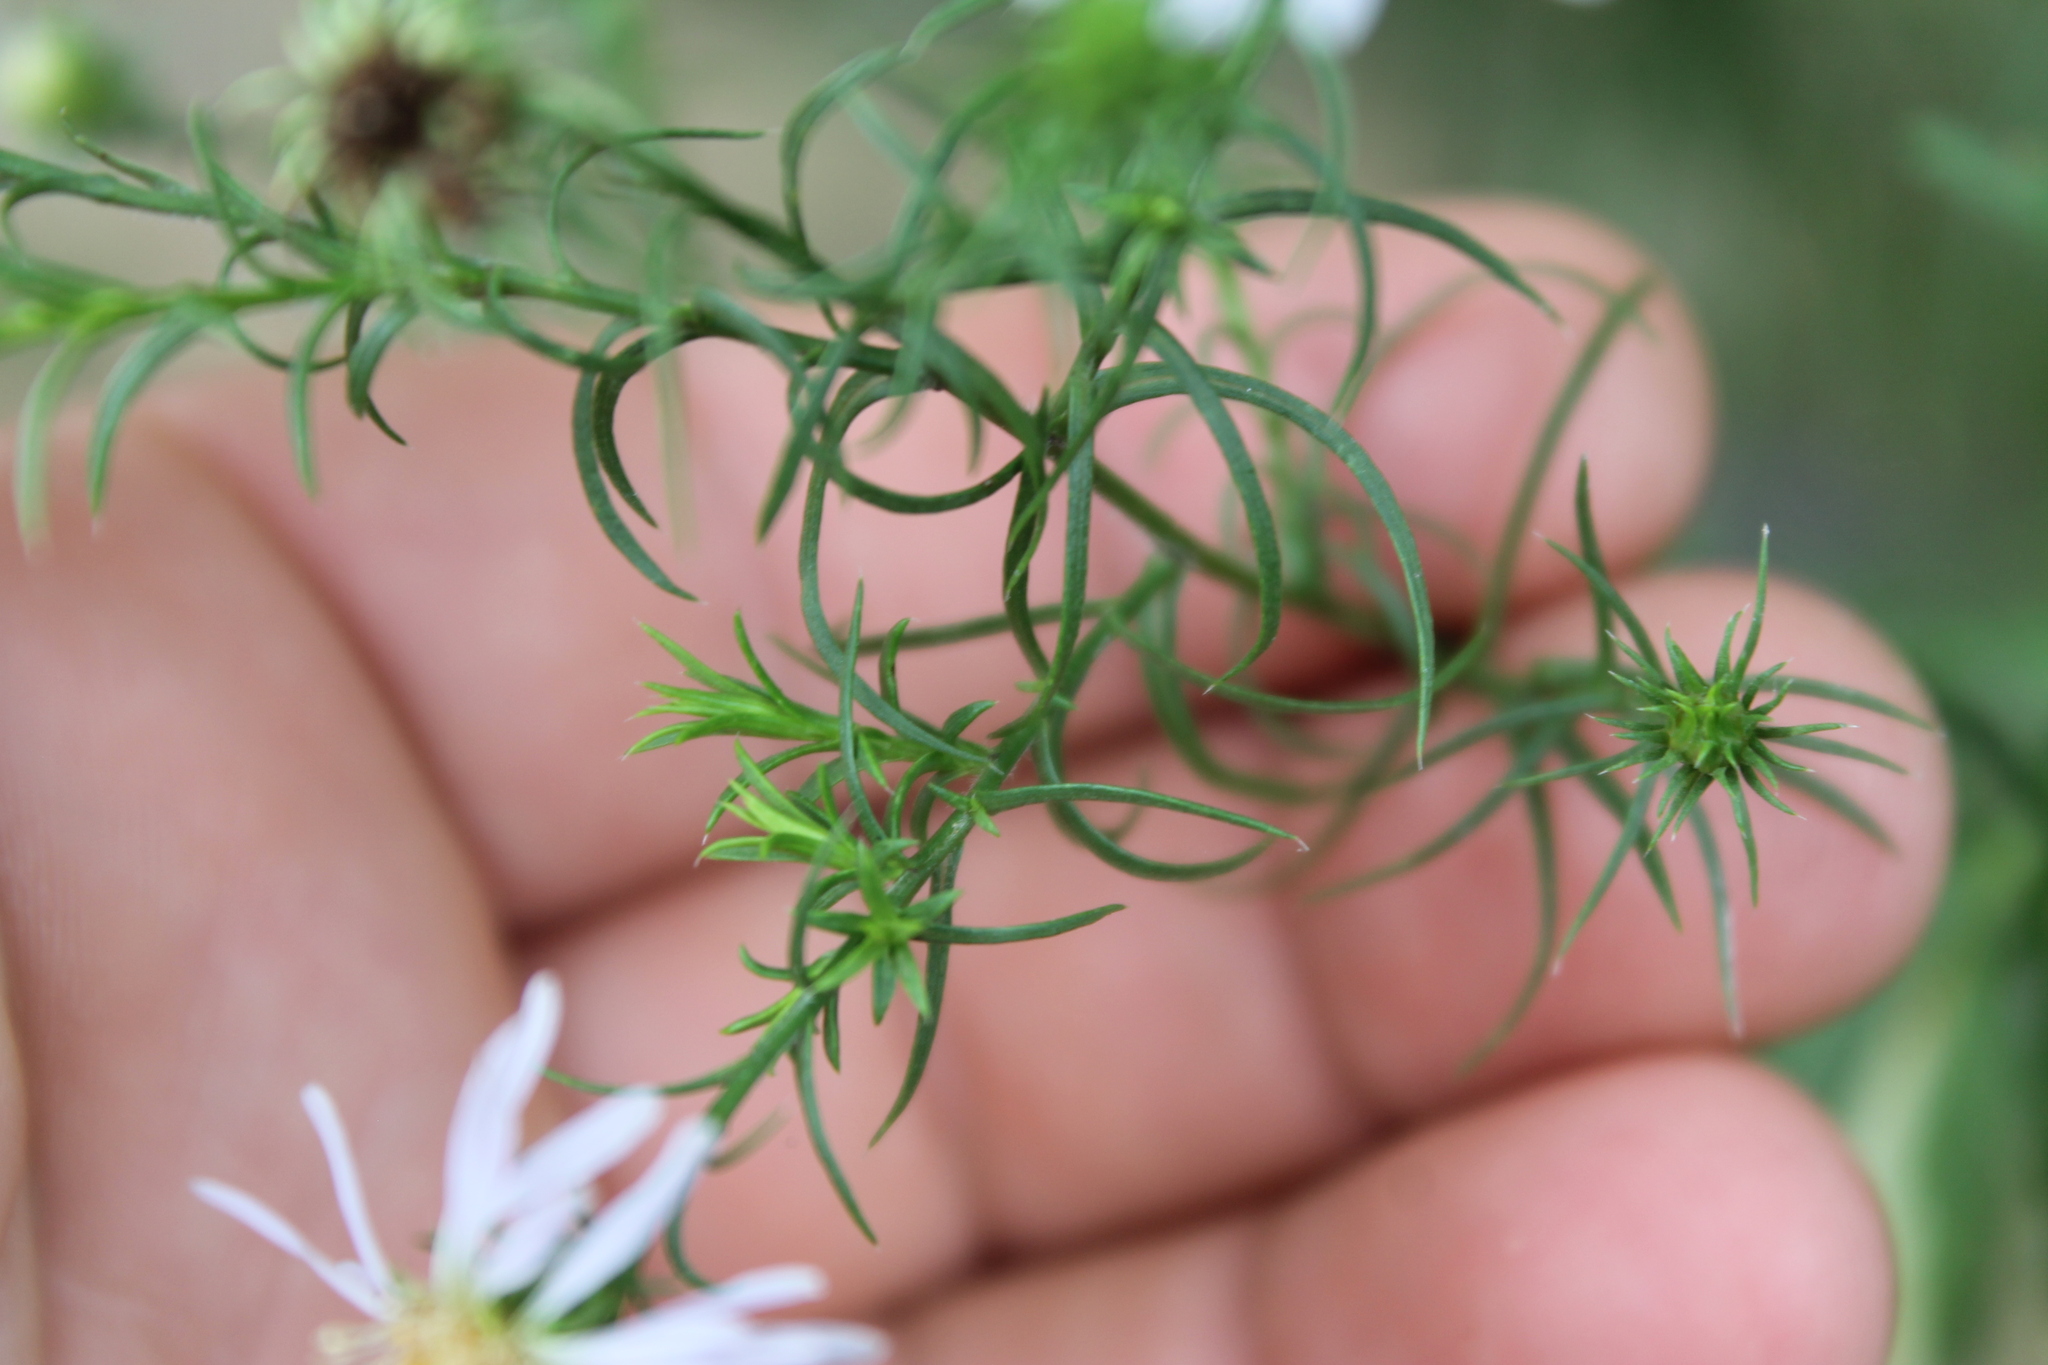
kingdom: Plantae
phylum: Tracheophyta
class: Magnoliopsida
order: Asterales
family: Asteraceae
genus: Symphyotrichum
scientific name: Symphyotrichum kentuckiense
